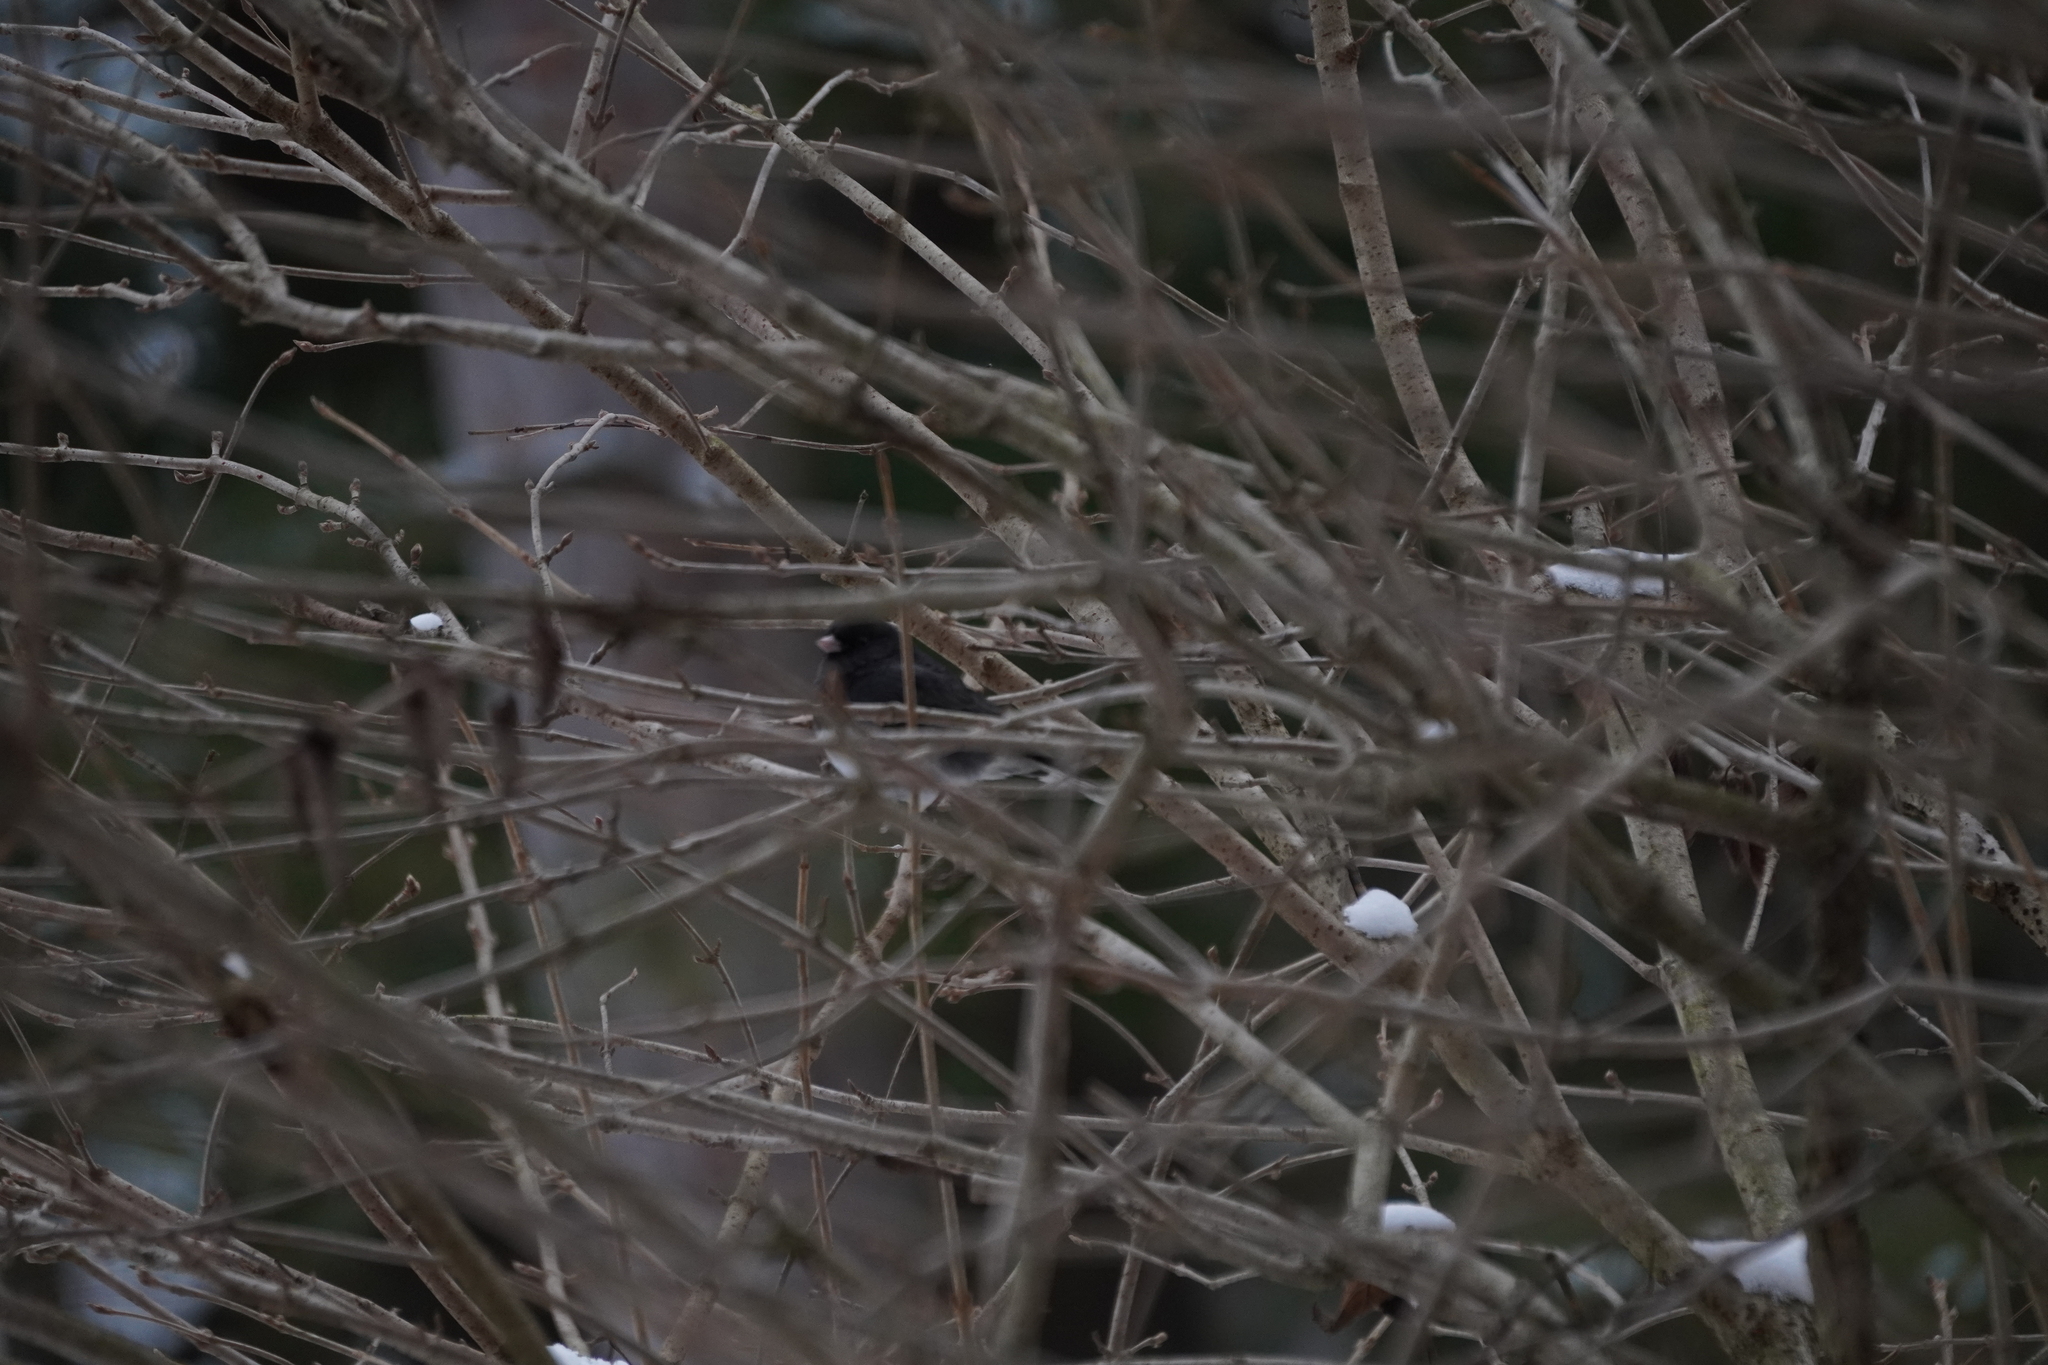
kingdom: Animalia
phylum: Chordata
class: Aves
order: Passeriformes
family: Passerellidae
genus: Junco
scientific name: Junco hyemalis
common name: Dark-eyed junco
